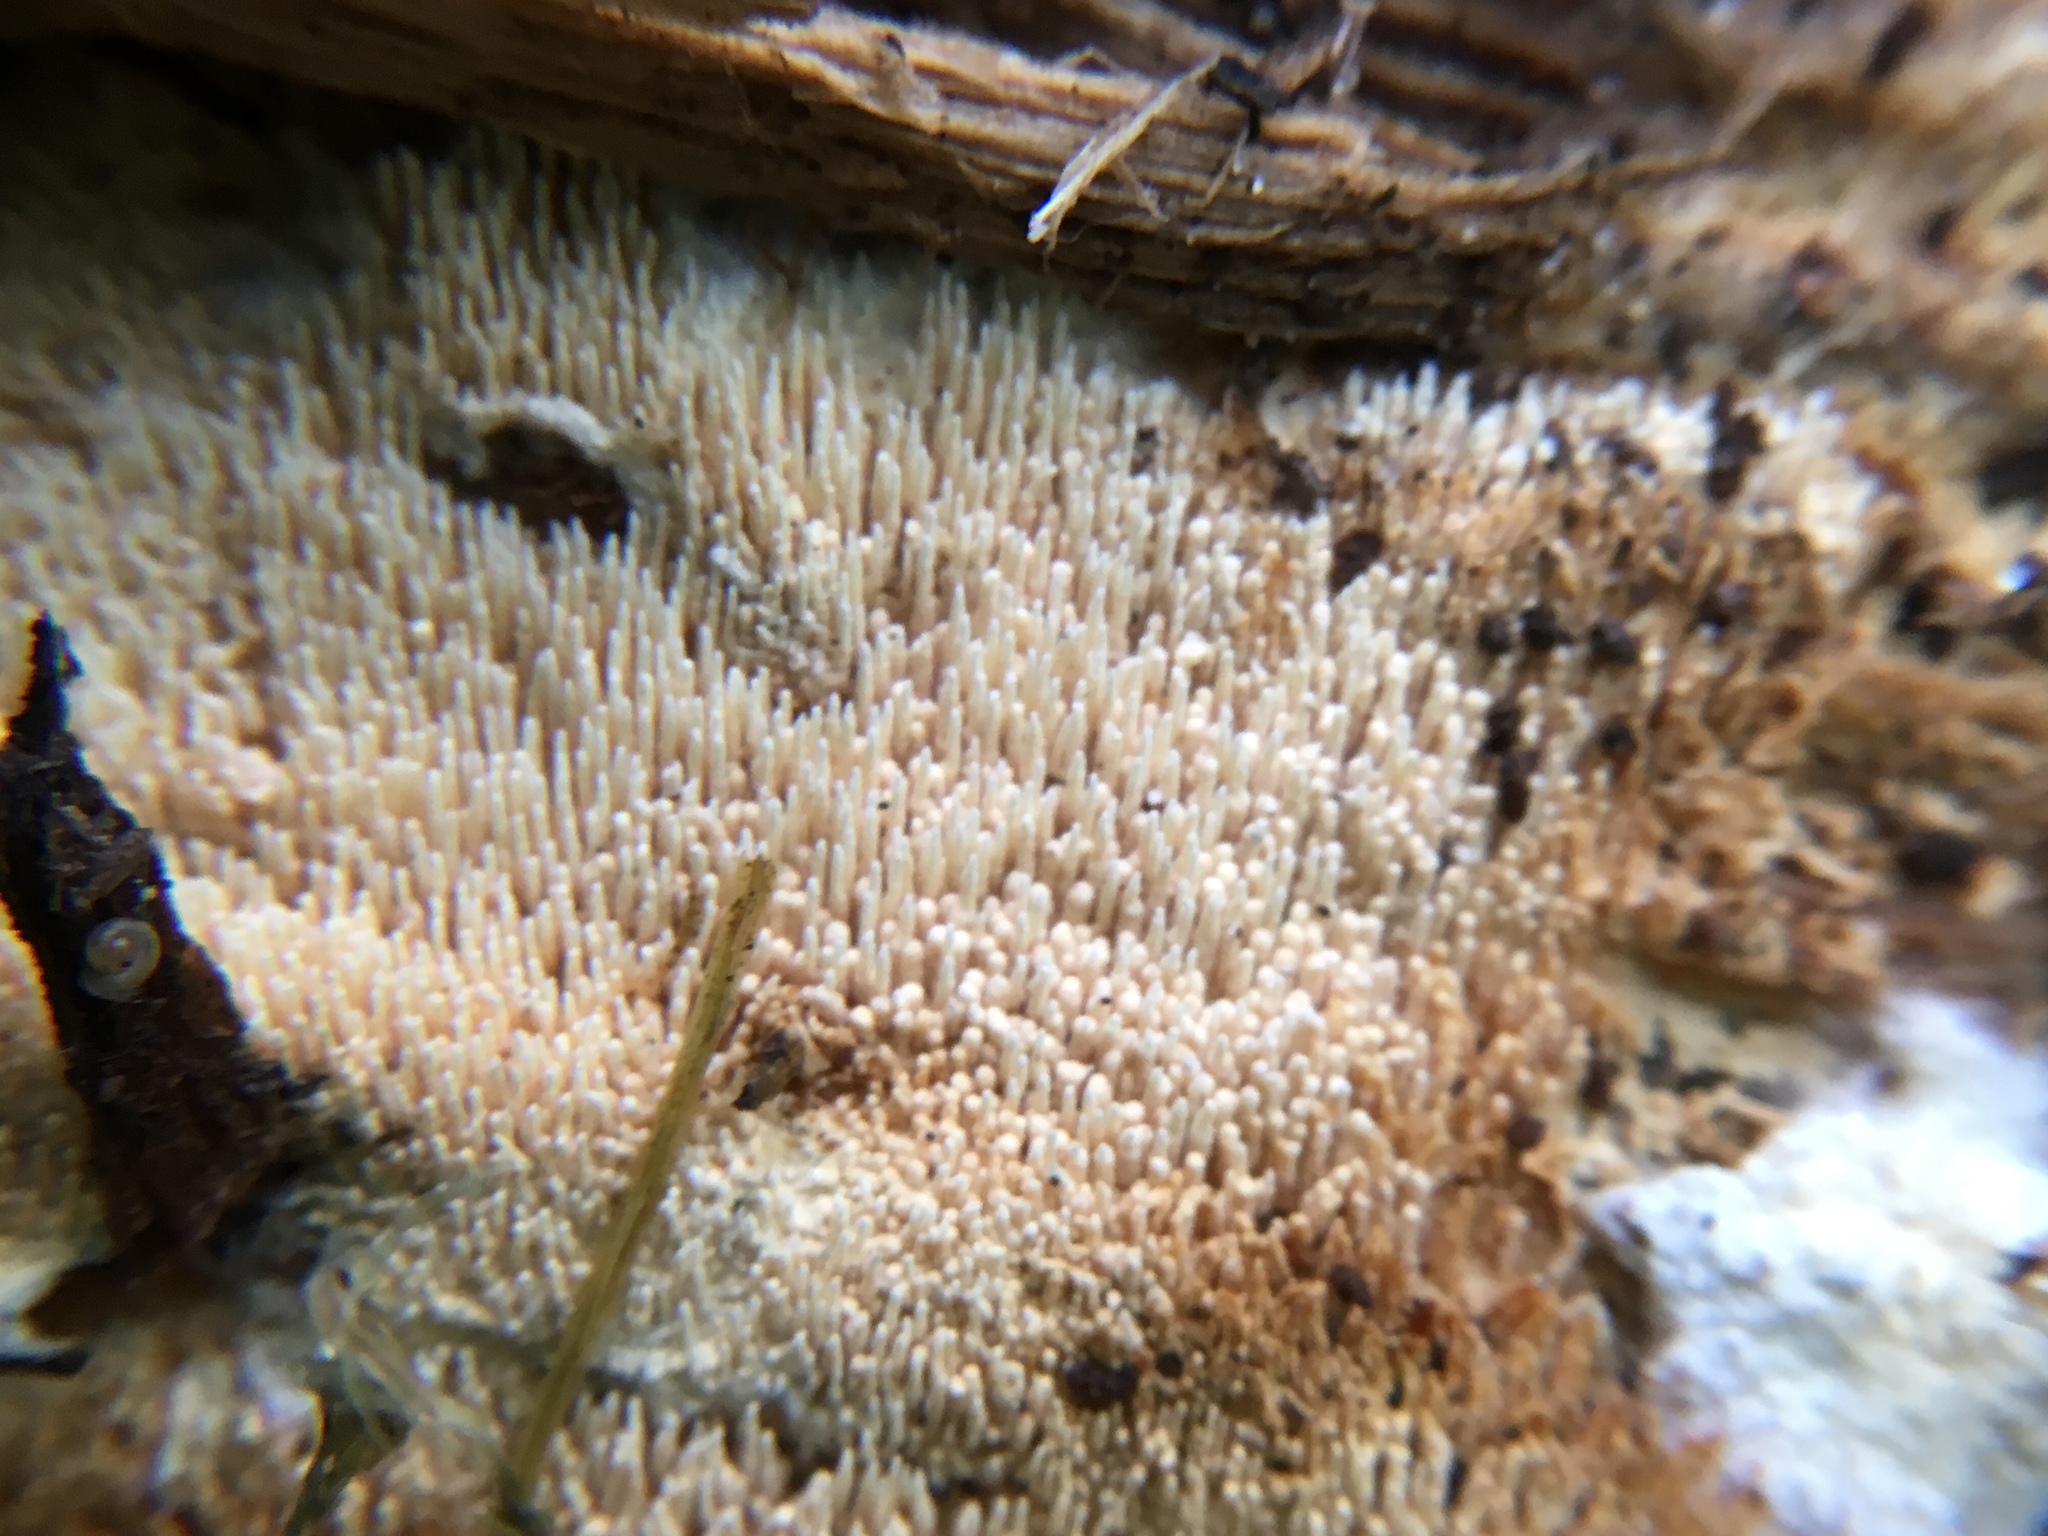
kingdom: Fungi
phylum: Basidiomycota
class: Agaricomycetes
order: Hymenochaetales
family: Schizoporaceae
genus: Xylodon
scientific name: Xylodon radula
